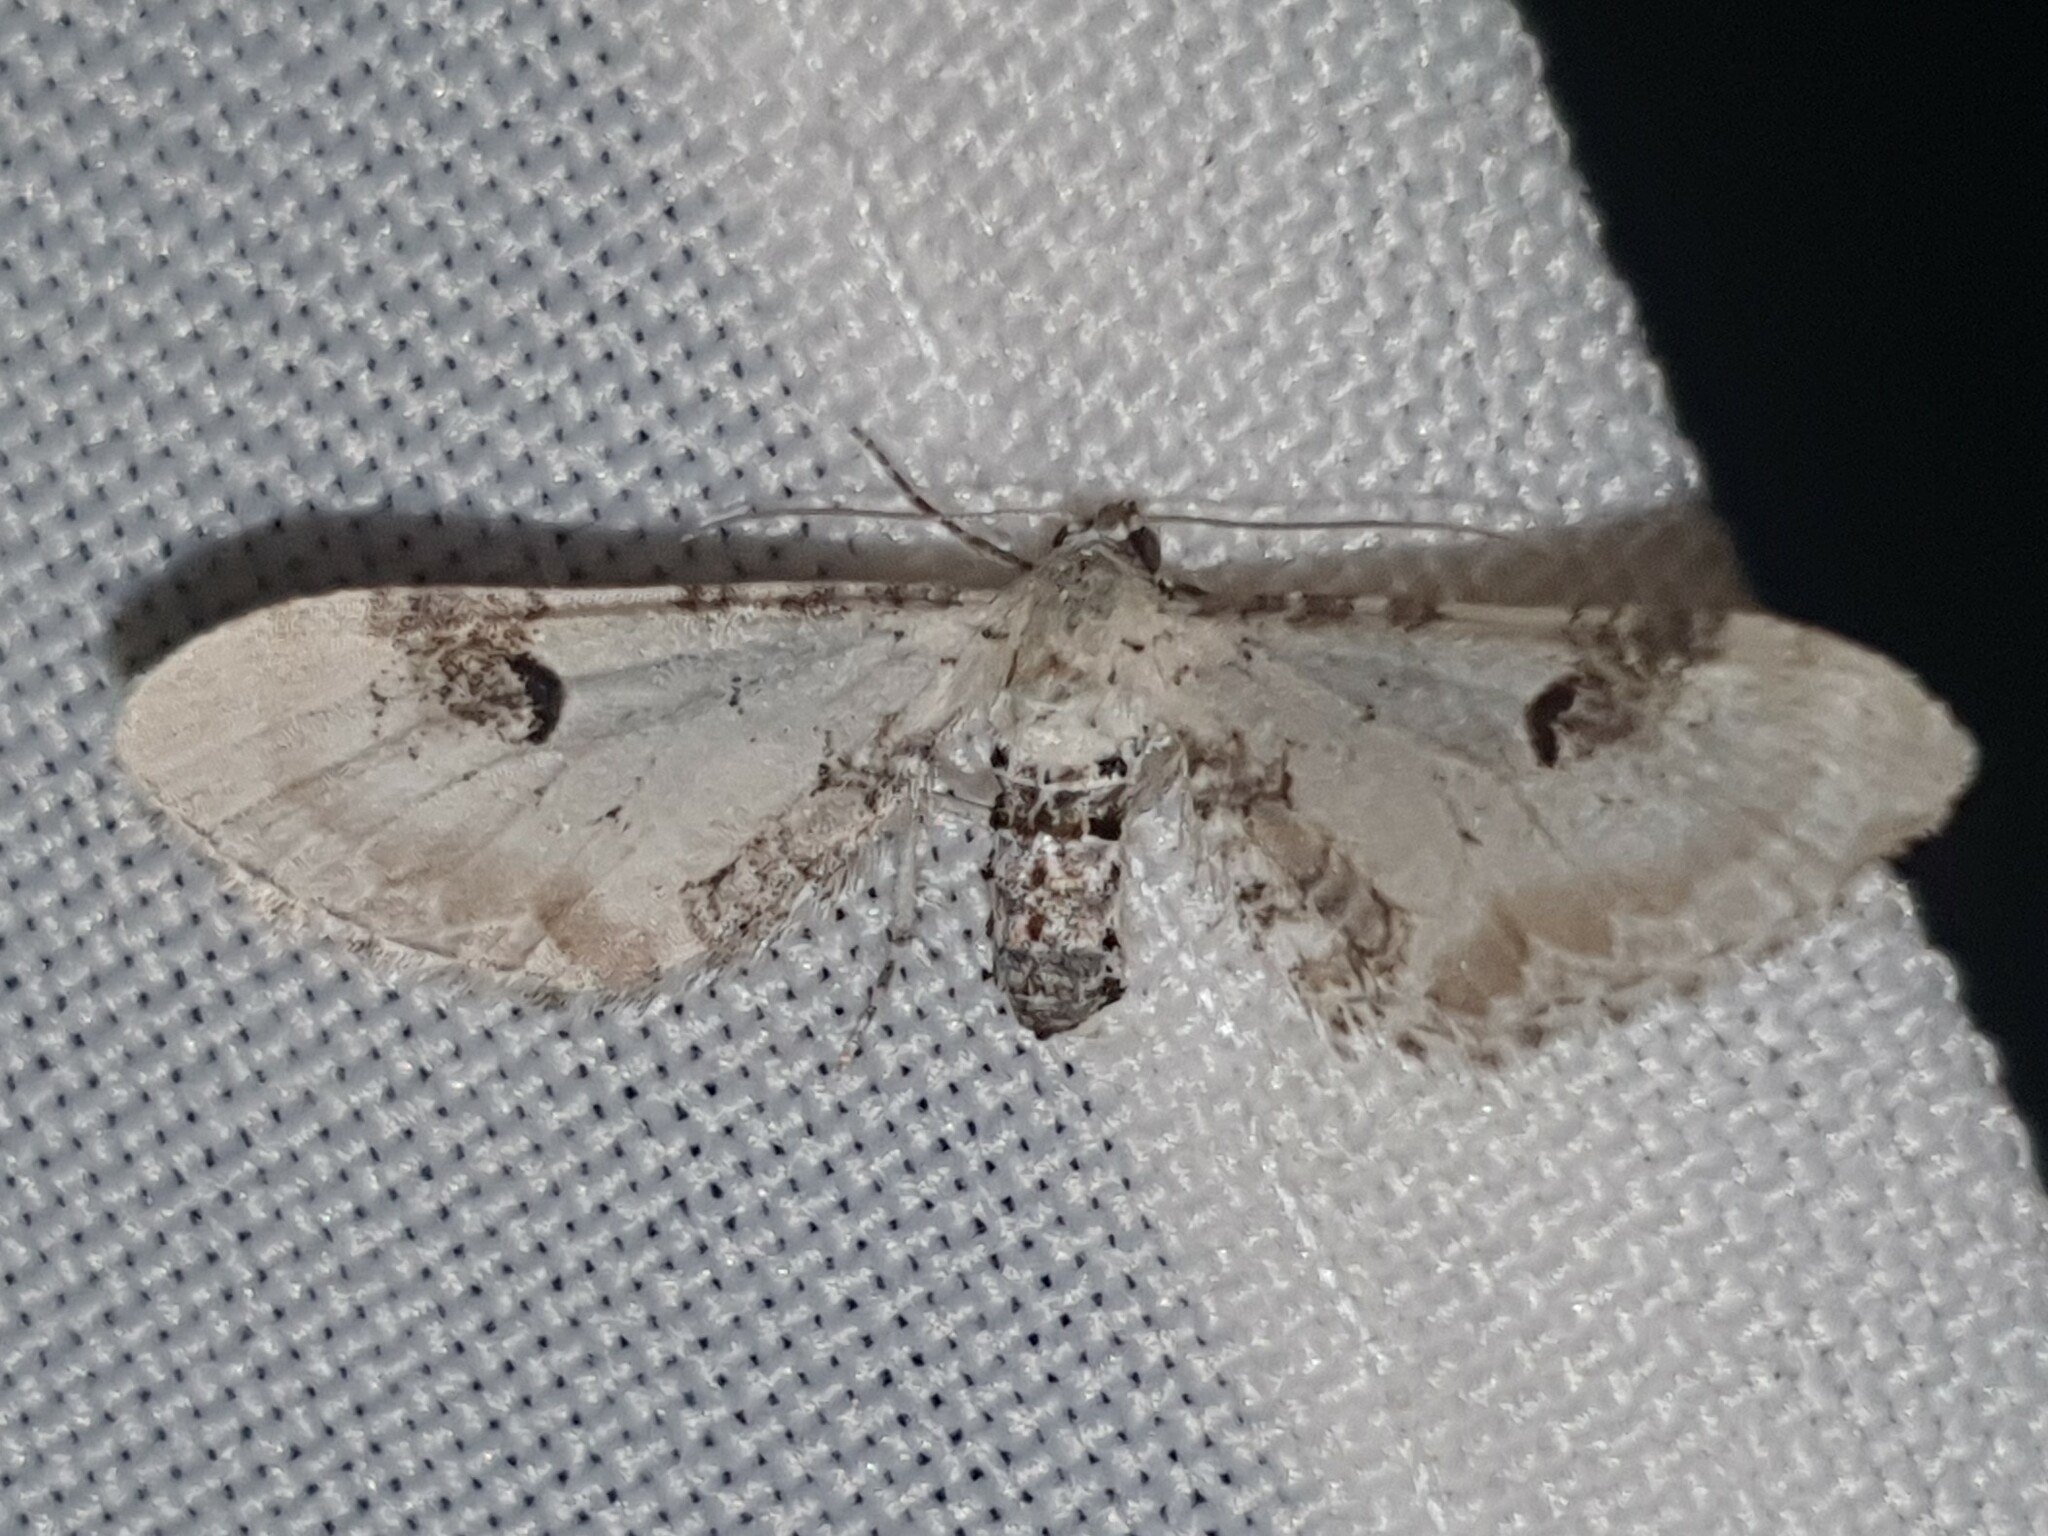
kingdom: Animalia
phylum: Arthropoda
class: Insecta
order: Lepidoptera
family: Geometridae
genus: Eupithecia
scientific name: Eupithecia centaureata
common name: Lime-speck pug
